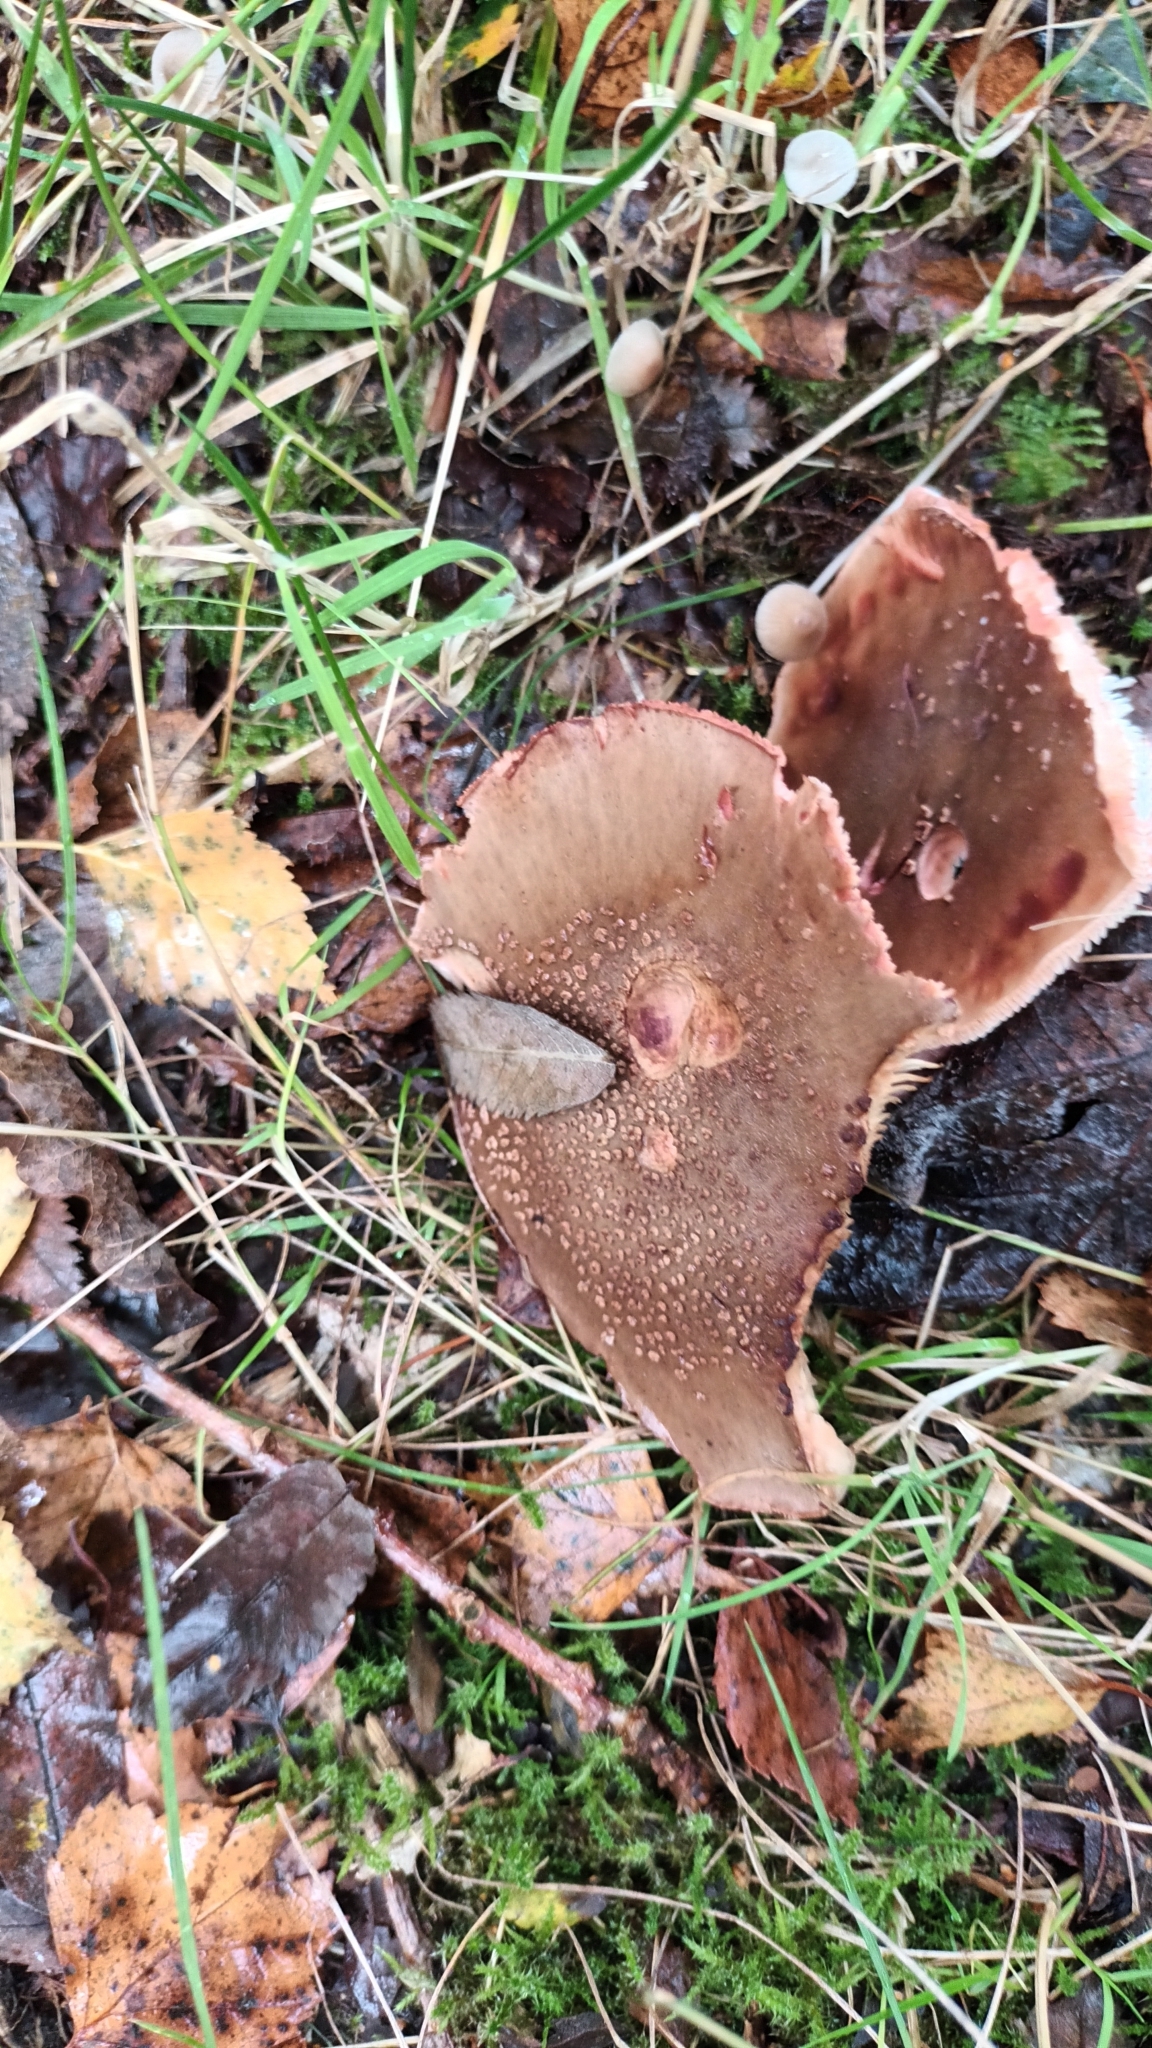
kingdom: Fungi
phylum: Basidiomycota
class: Agaricomycetes
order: Agaricales
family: Amanitaceae
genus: Amanita
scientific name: Amanita rubescens
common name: Blusher
